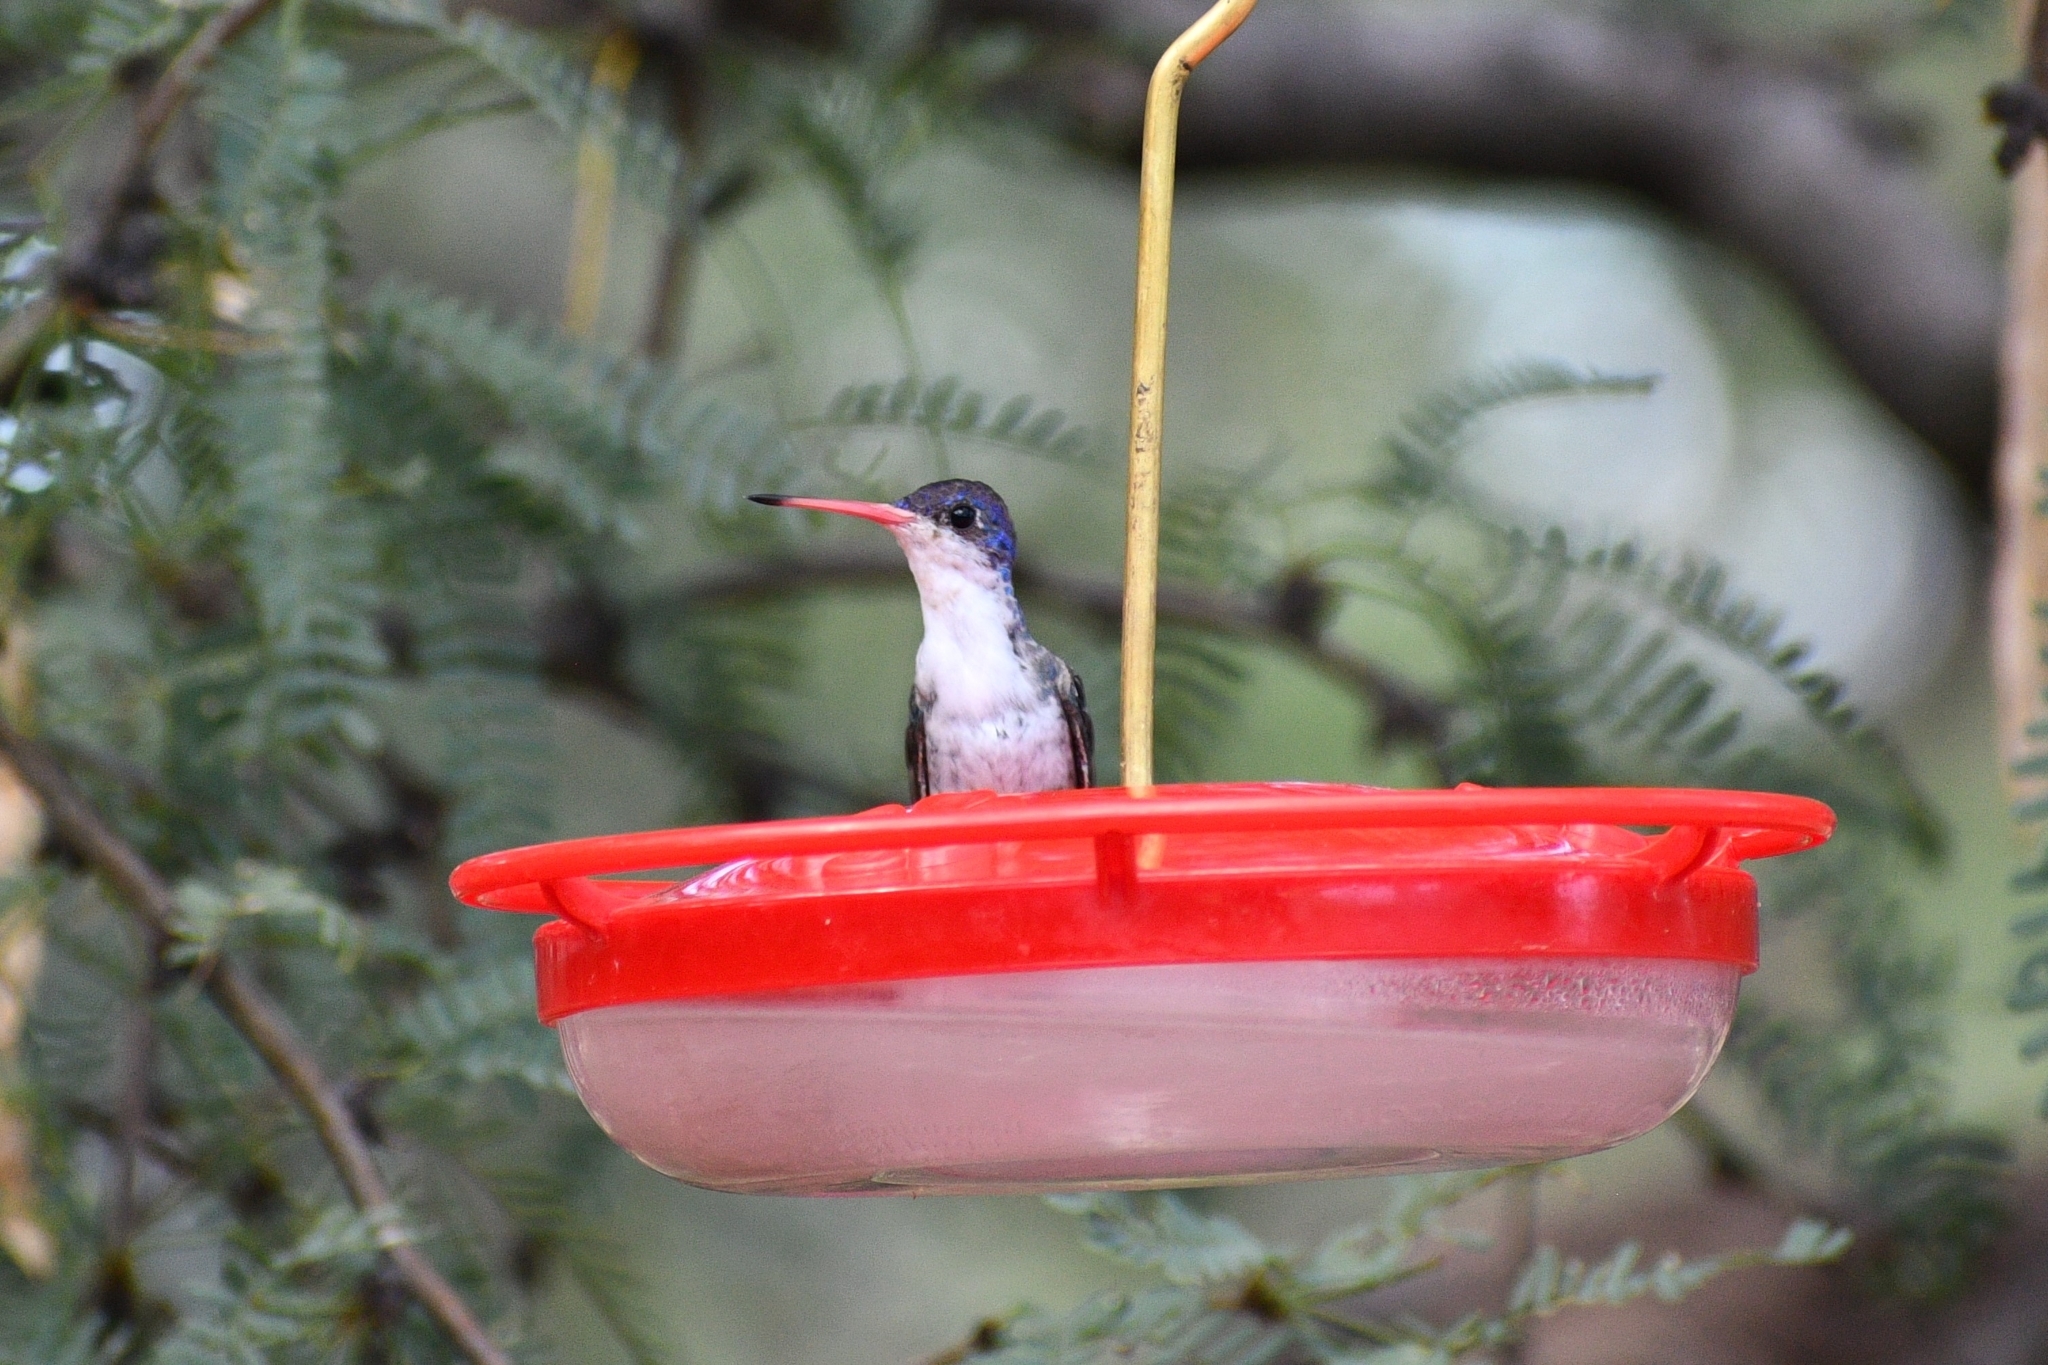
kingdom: Animalia
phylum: Chordata
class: Aves
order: Apodiformes
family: Trochilidae
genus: Leucolia
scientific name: Leucolia violiceps
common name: Violet-crowned hummingbird
